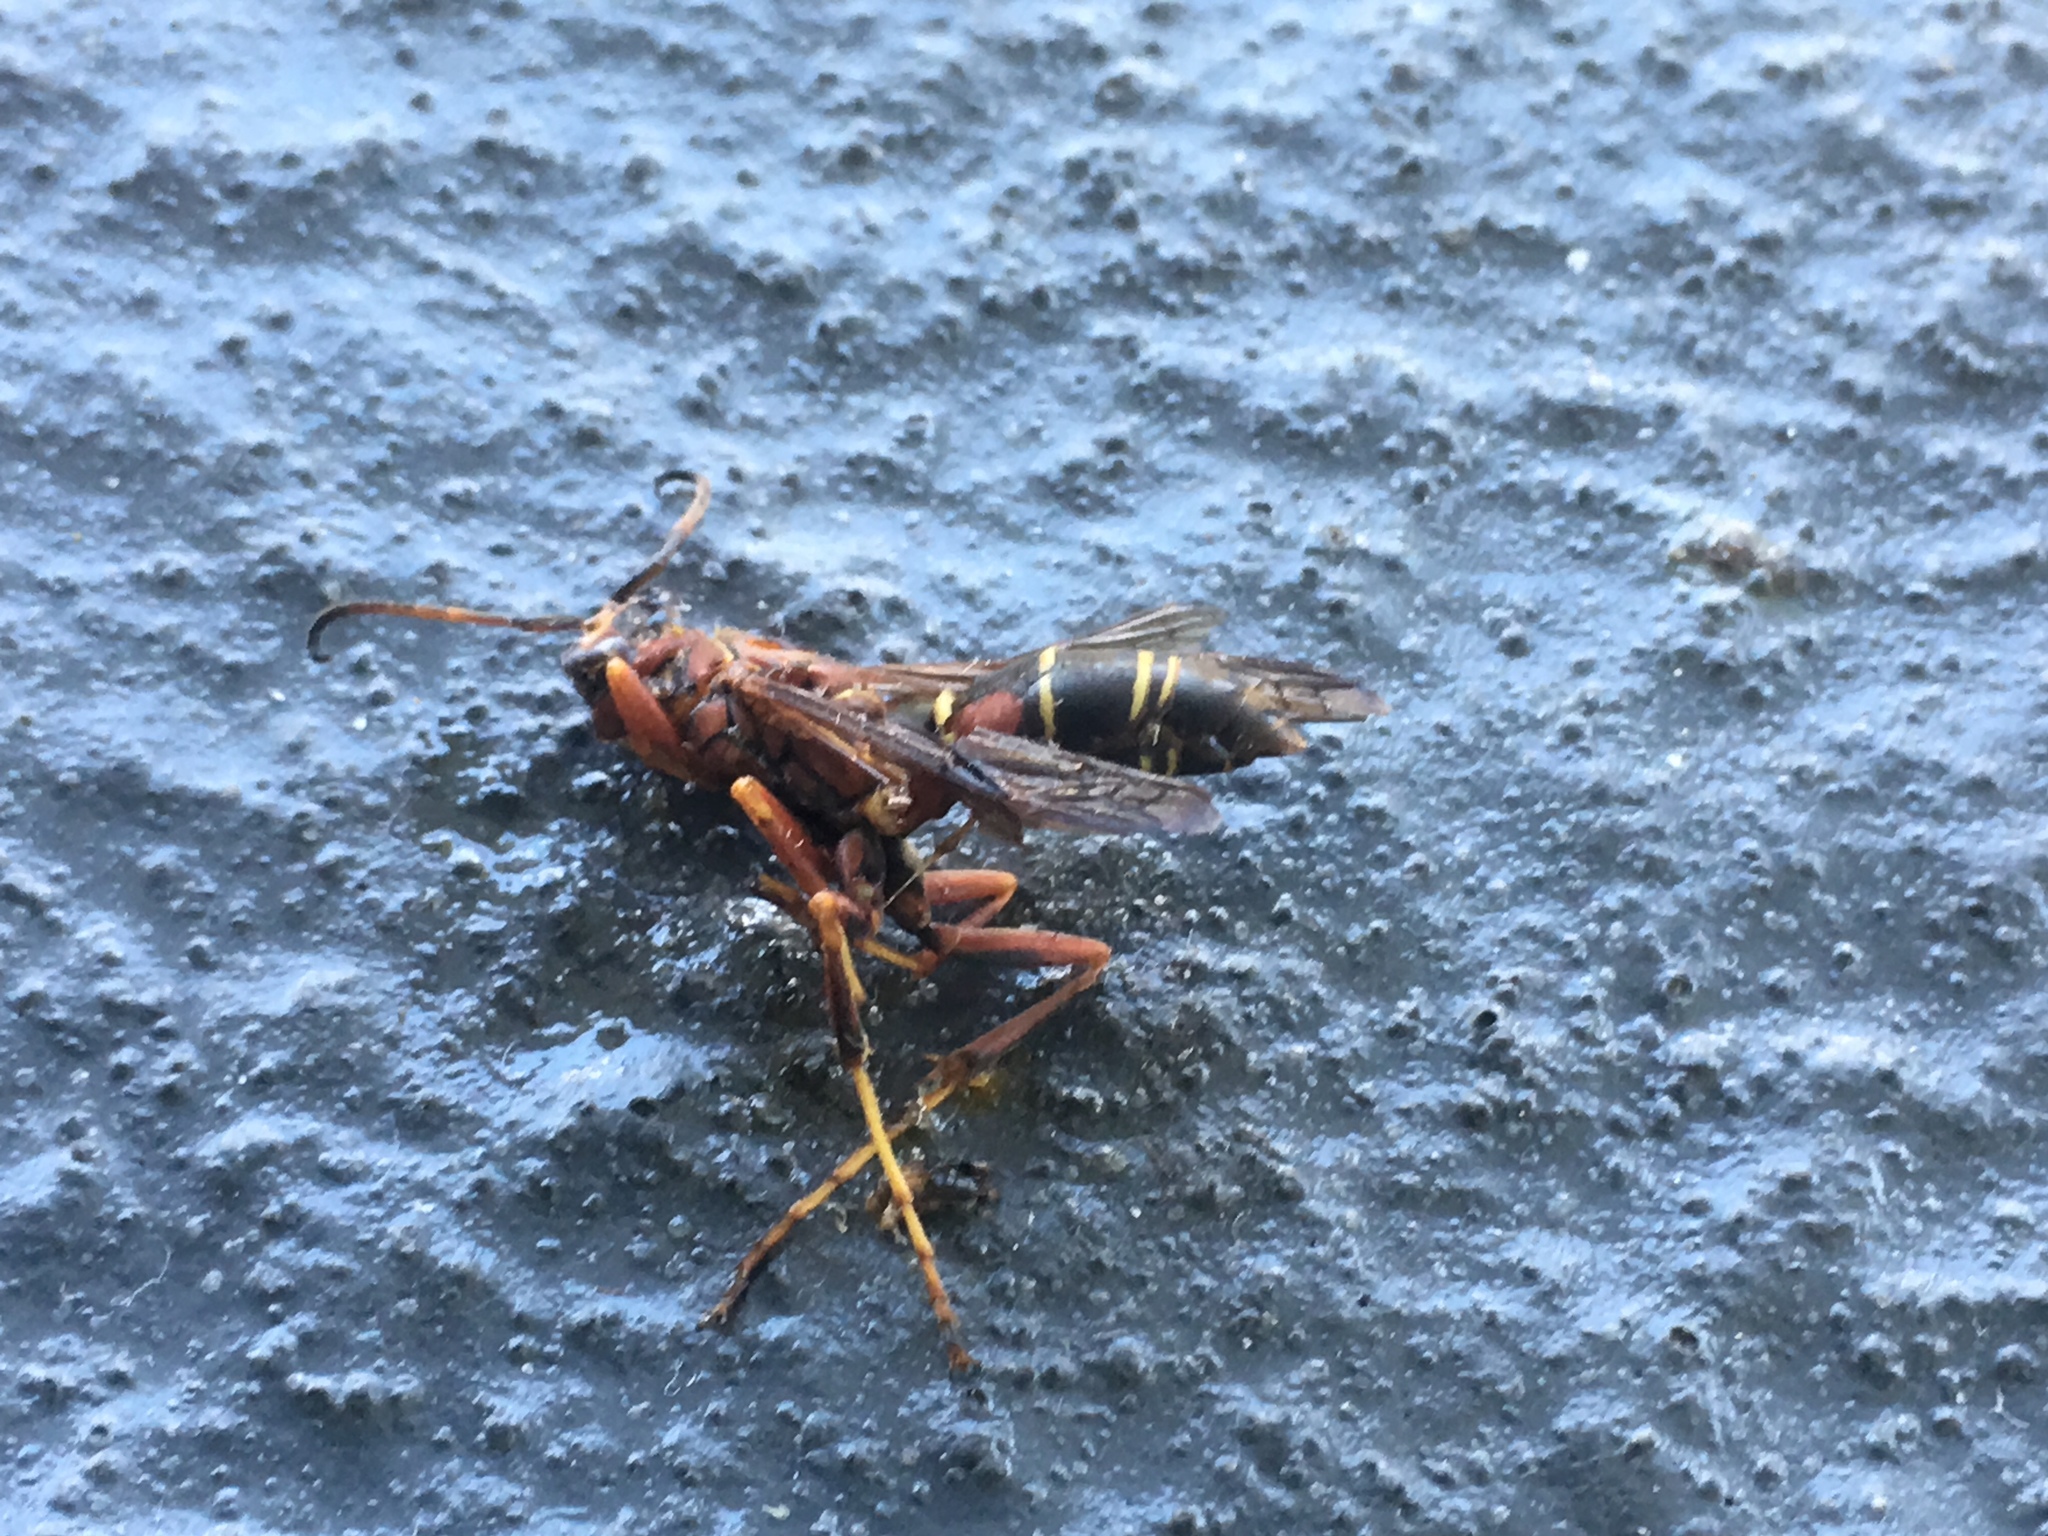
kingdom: Animalia
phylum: Arthropoda
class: Insecta
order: Hymenoptera
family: Eumenidae
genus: Polistes
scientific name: Polistes fuscatus
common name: Dark paper wasp
